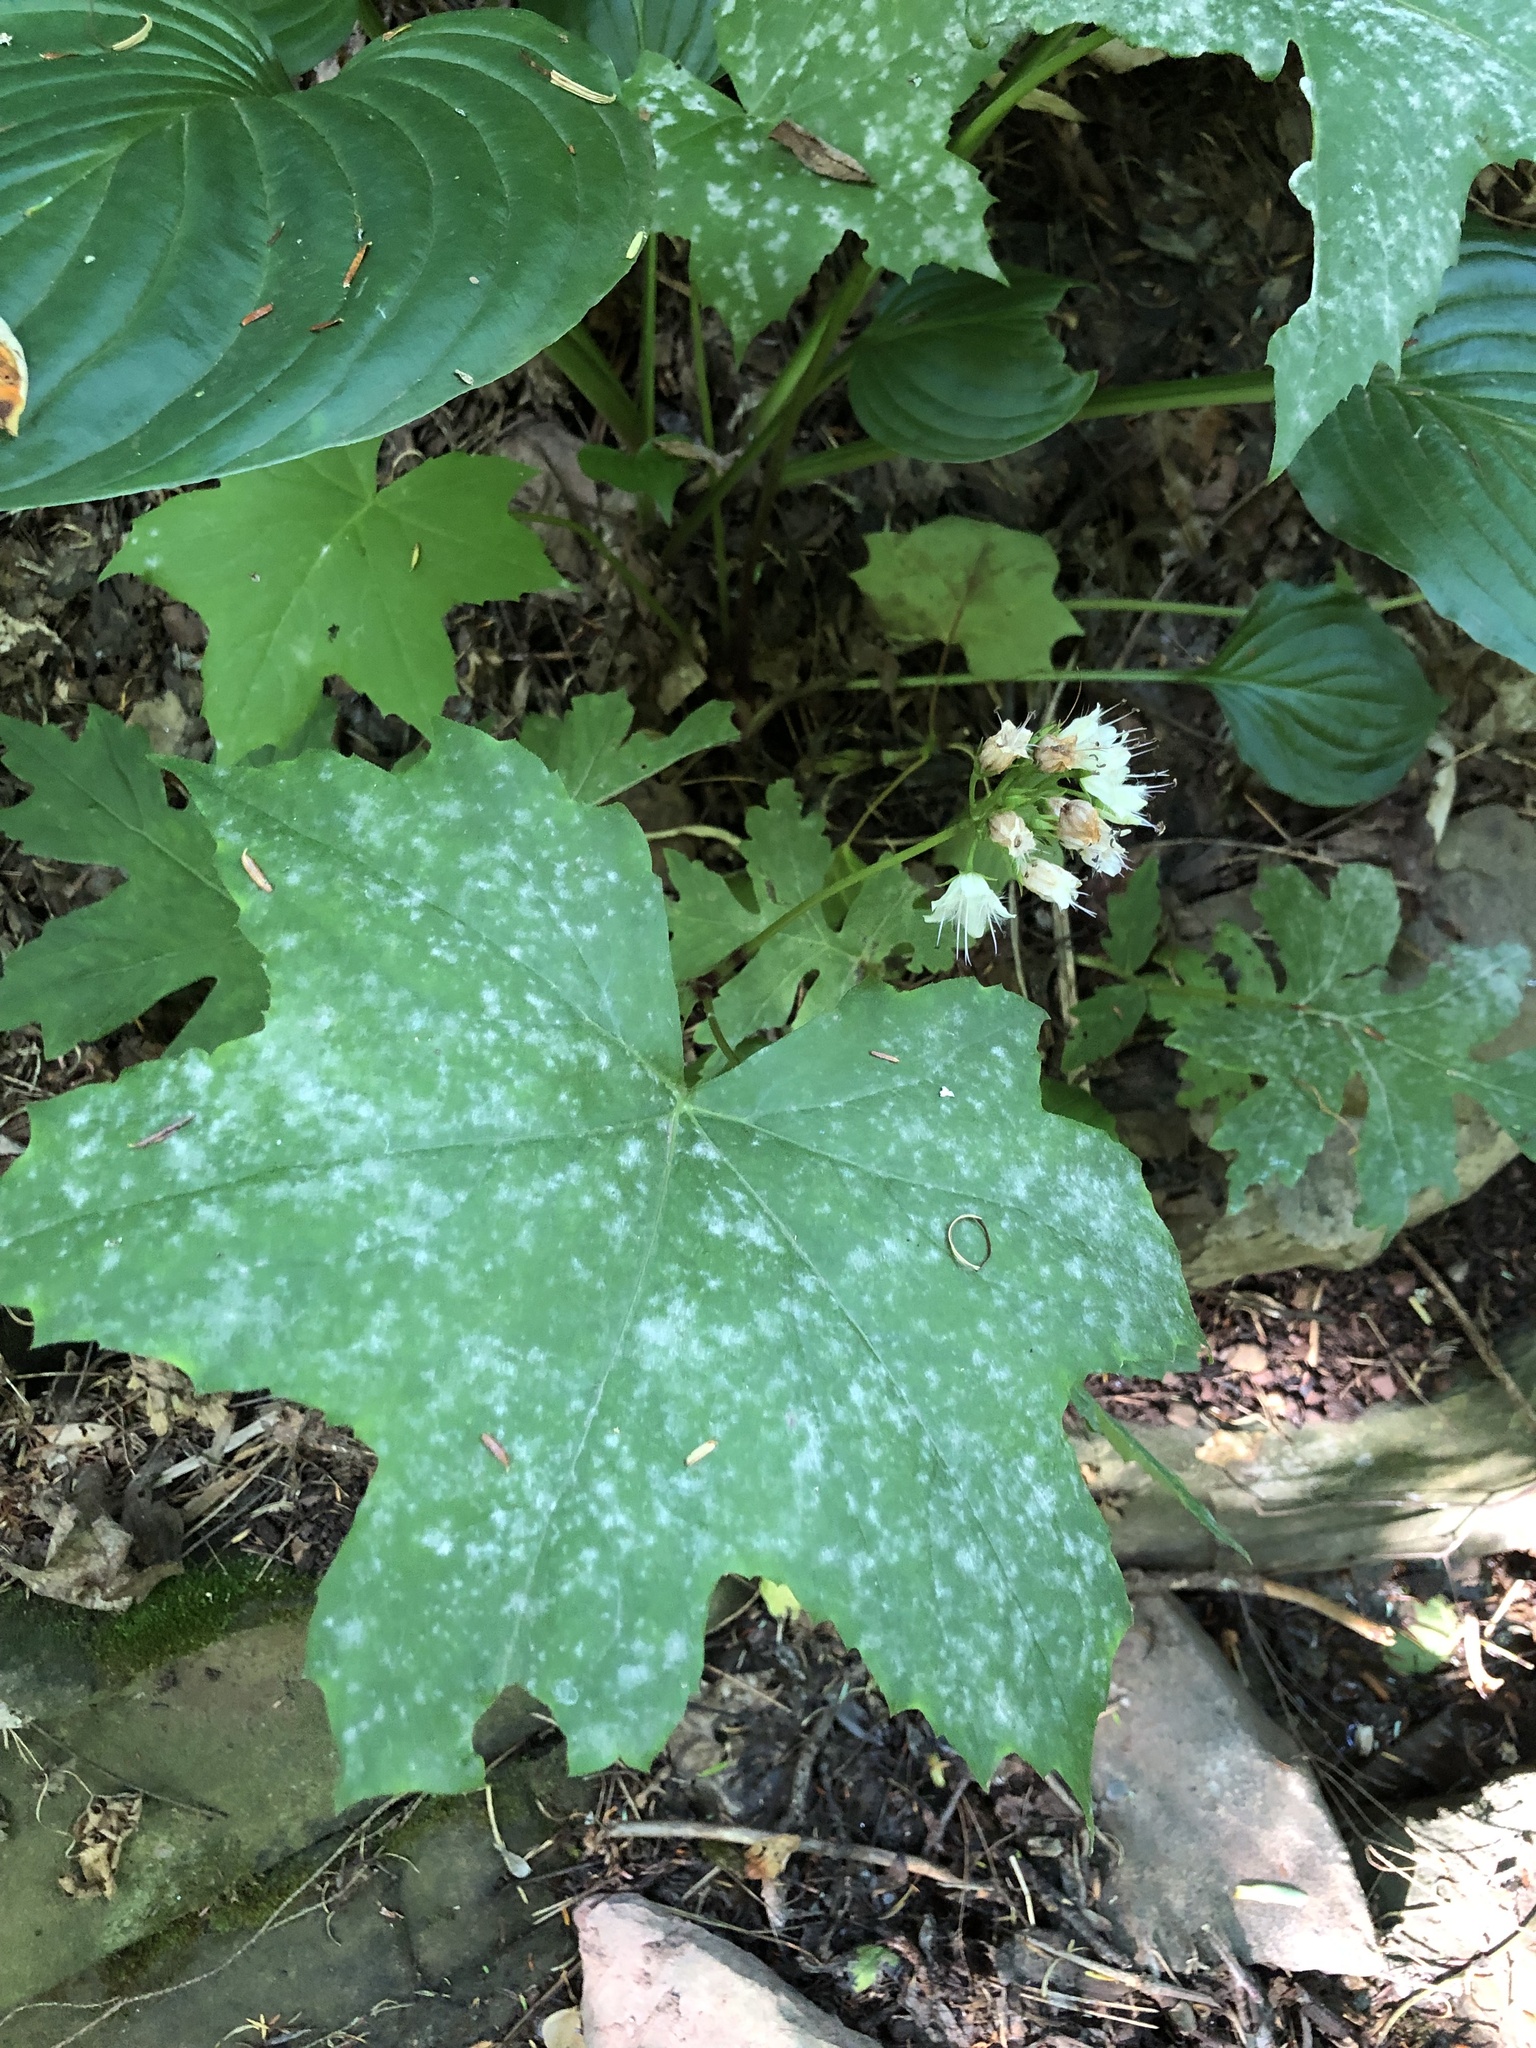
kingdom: Plantae
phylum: Tracheophyta
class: Magnoliopsida
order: Boraginales
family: Hydrophyllaceae
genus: Hydrophyllum
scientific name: Hydrophyllum canadense
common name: Canada waterleaf
